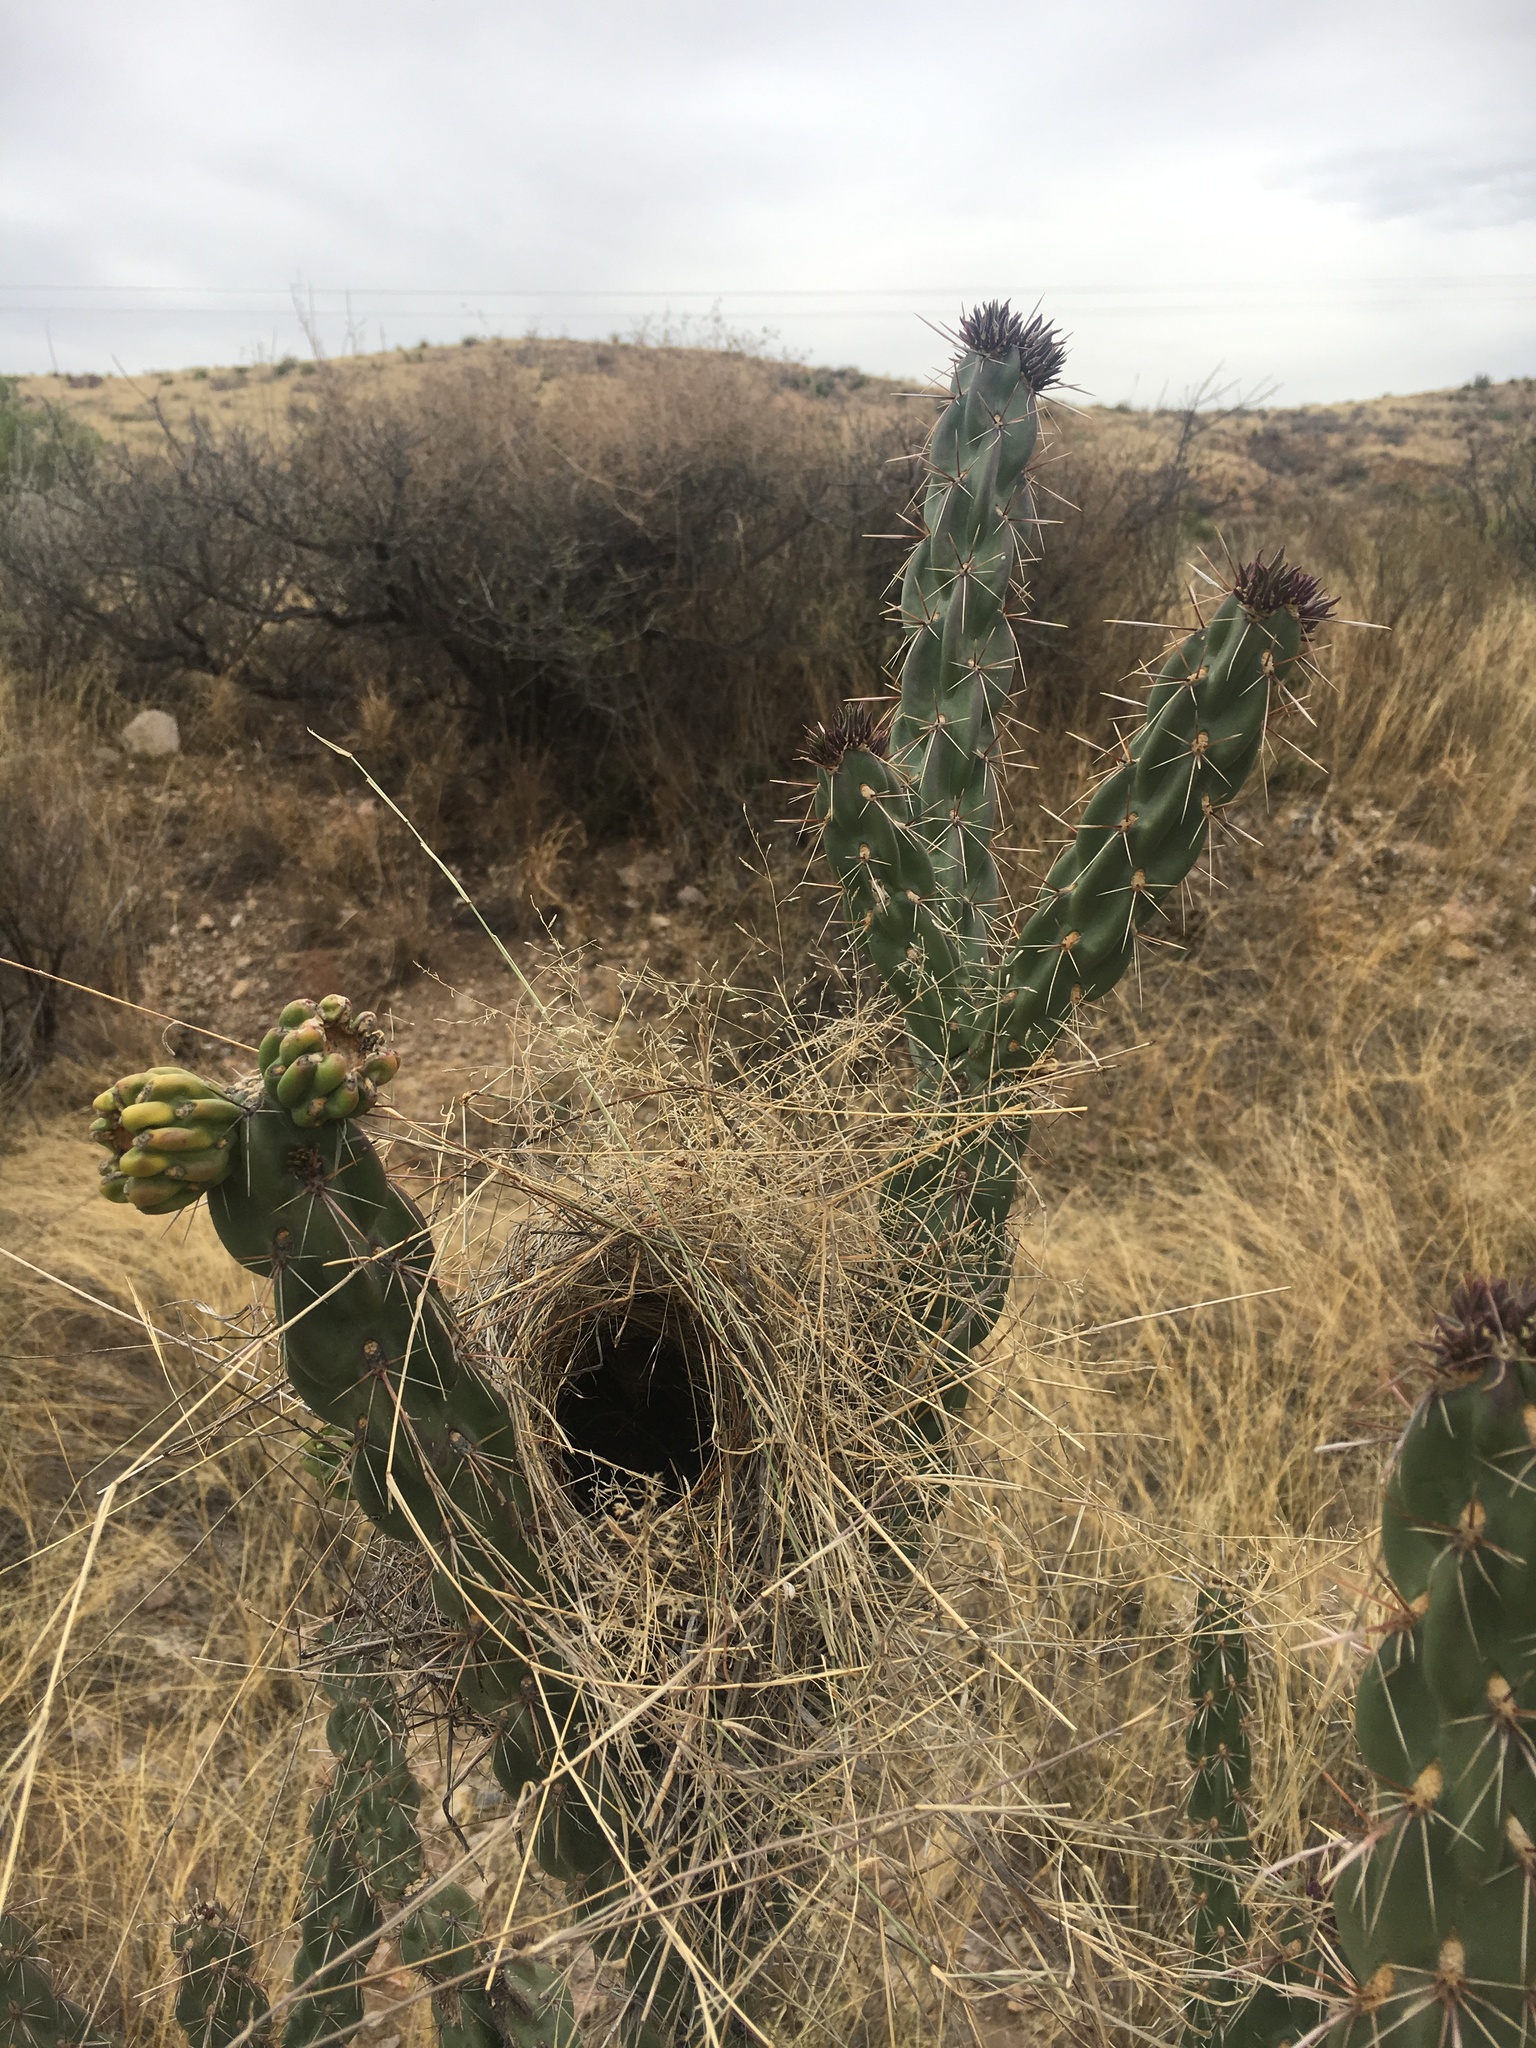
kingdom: Animalia
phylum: Chordata
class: Aves
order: Passeriformes
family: Troglodytidae
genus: Campylorhynchus
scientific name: Campylorhynchus brunneicapillus
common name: Cactus wren
